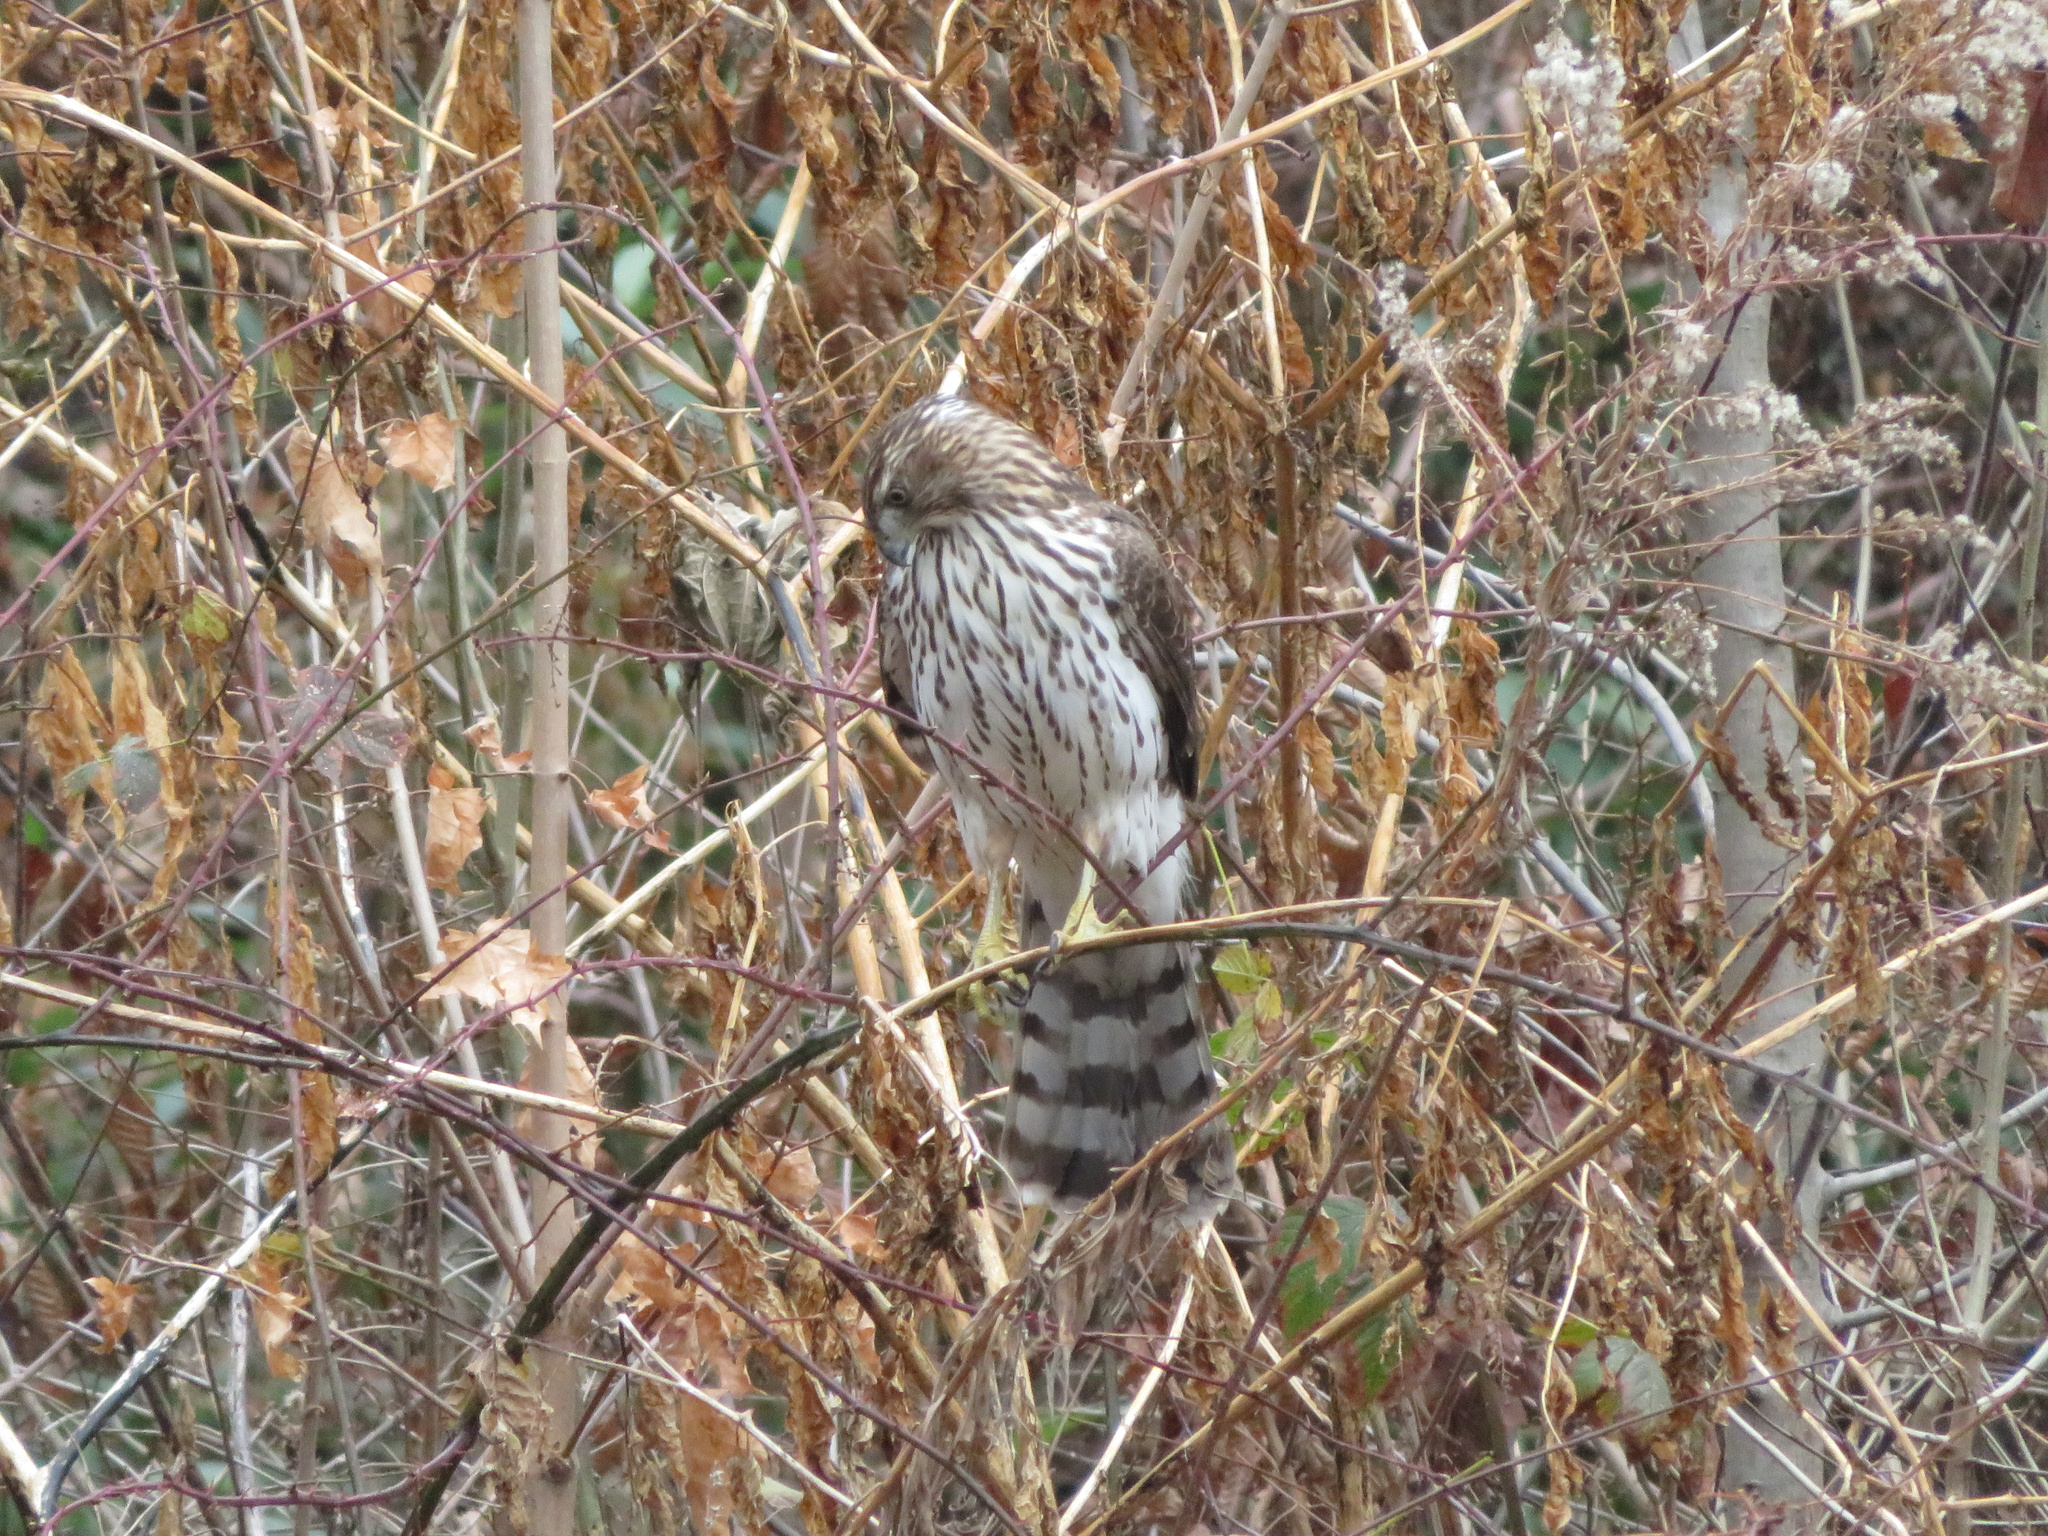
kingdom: Animalia
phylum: Chordata
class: Aves
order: Accipitriformes
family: Accipitridae
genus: Accipiter
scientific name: Accipiter cooperii
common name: Cooper's hawk
